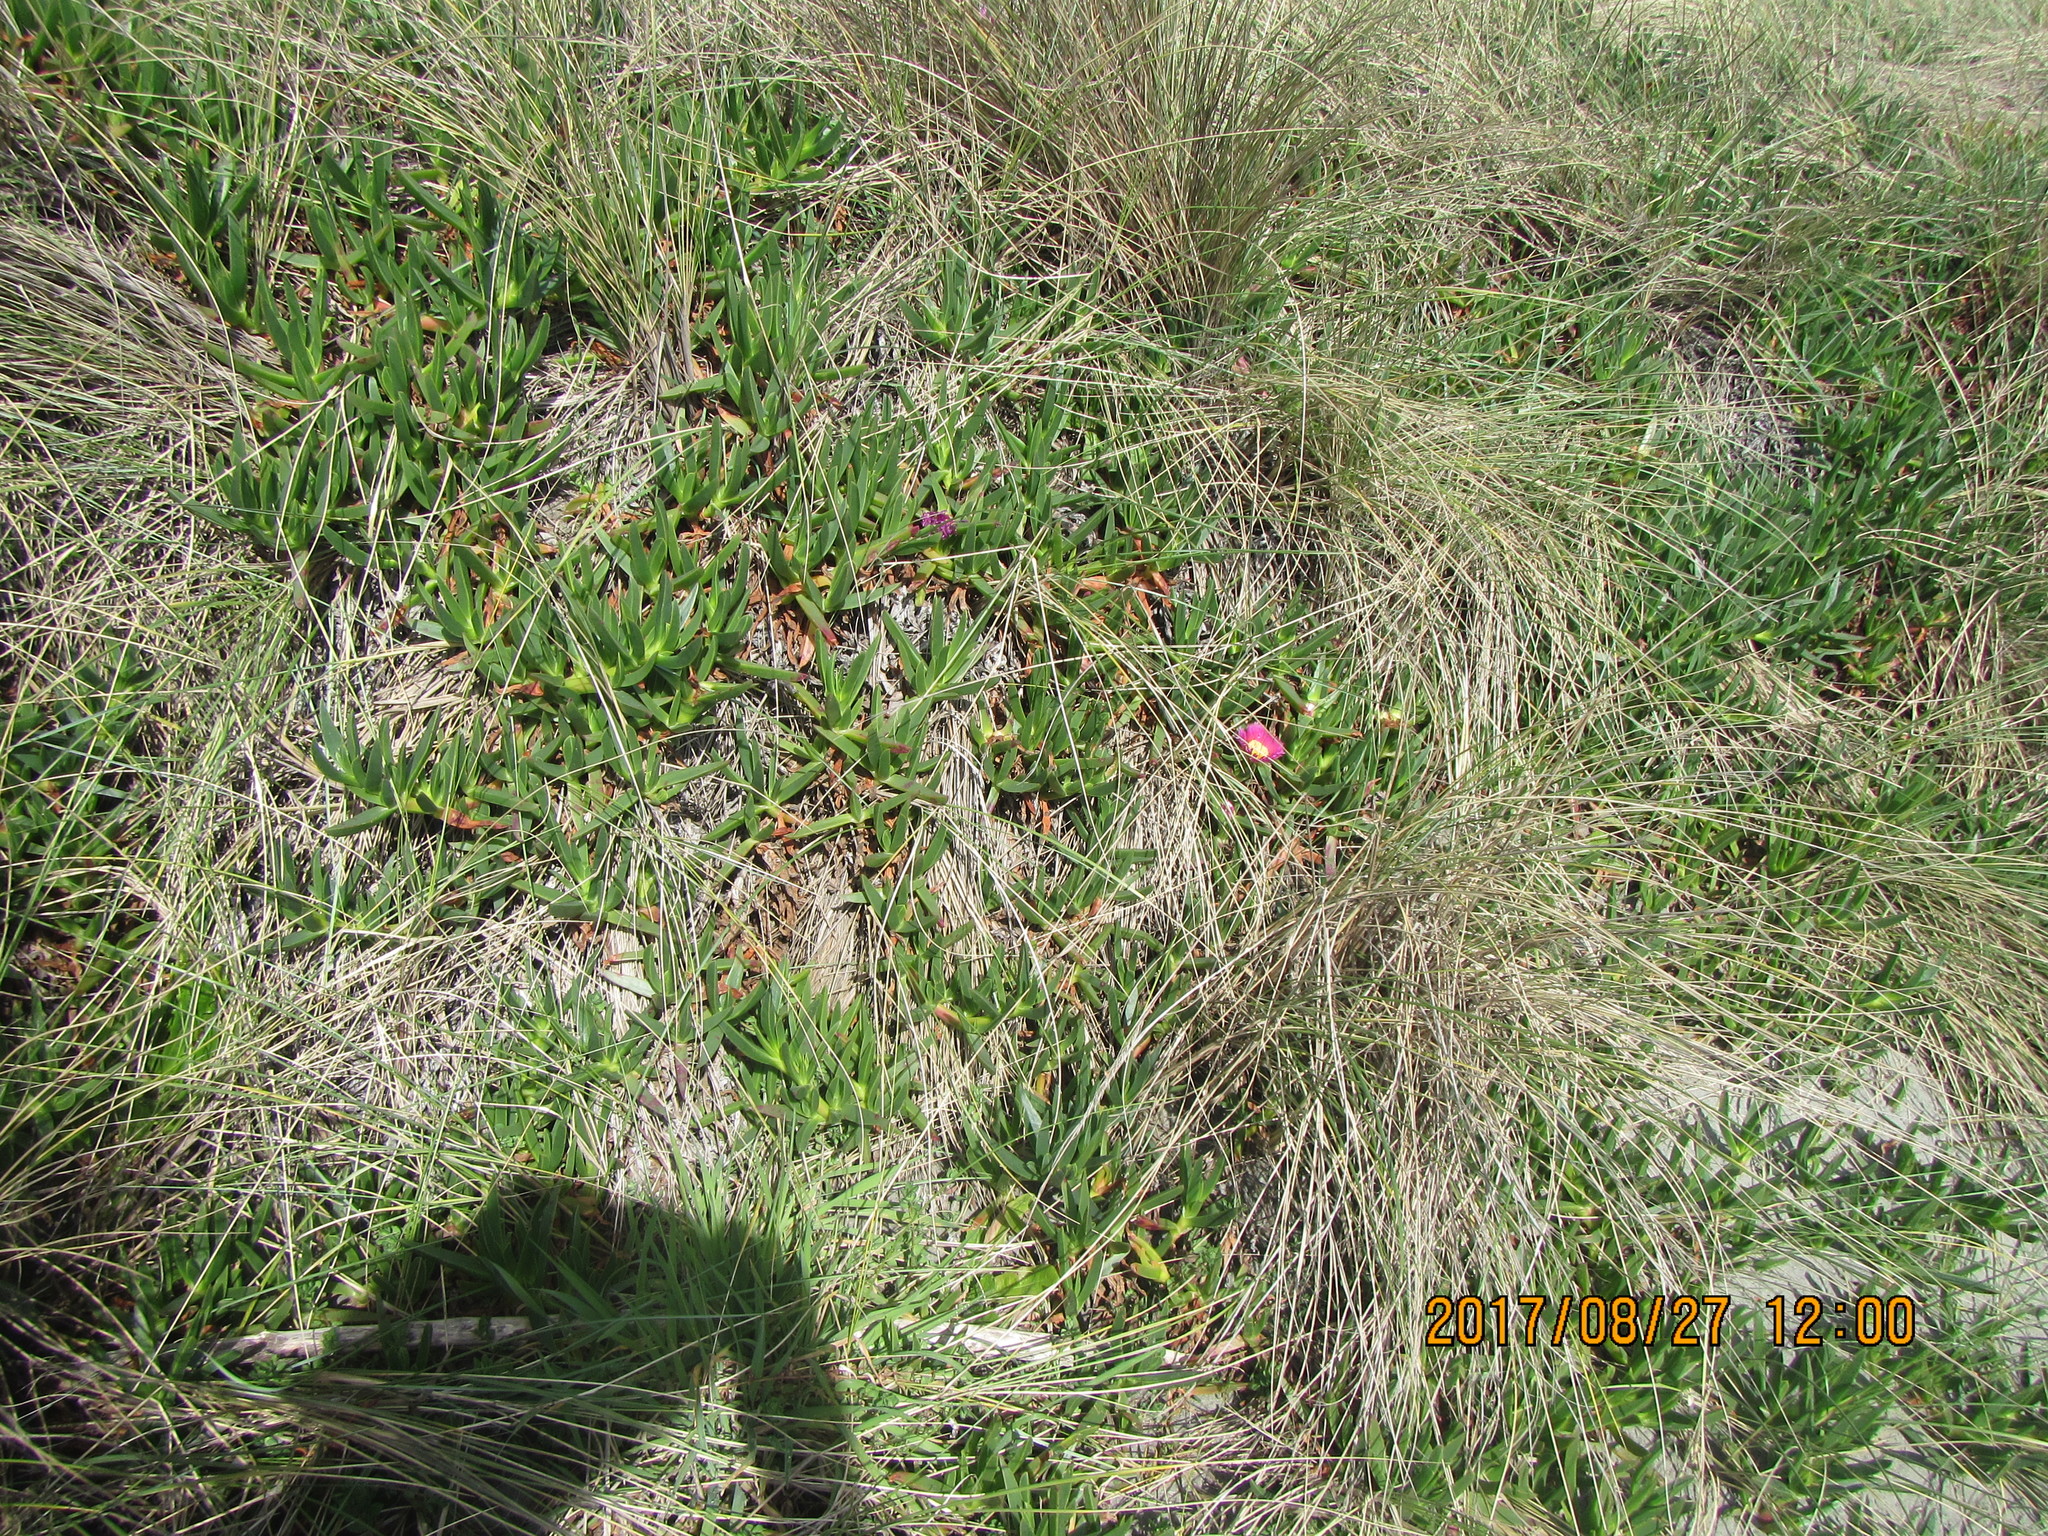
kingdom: Plantae
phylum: Tracheophyta
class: Magnoliopsida
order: Caryophyllales
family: Aizoaceae
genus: Carpobrotus
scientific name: Carpobrotus chilensis
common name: Sea fig
